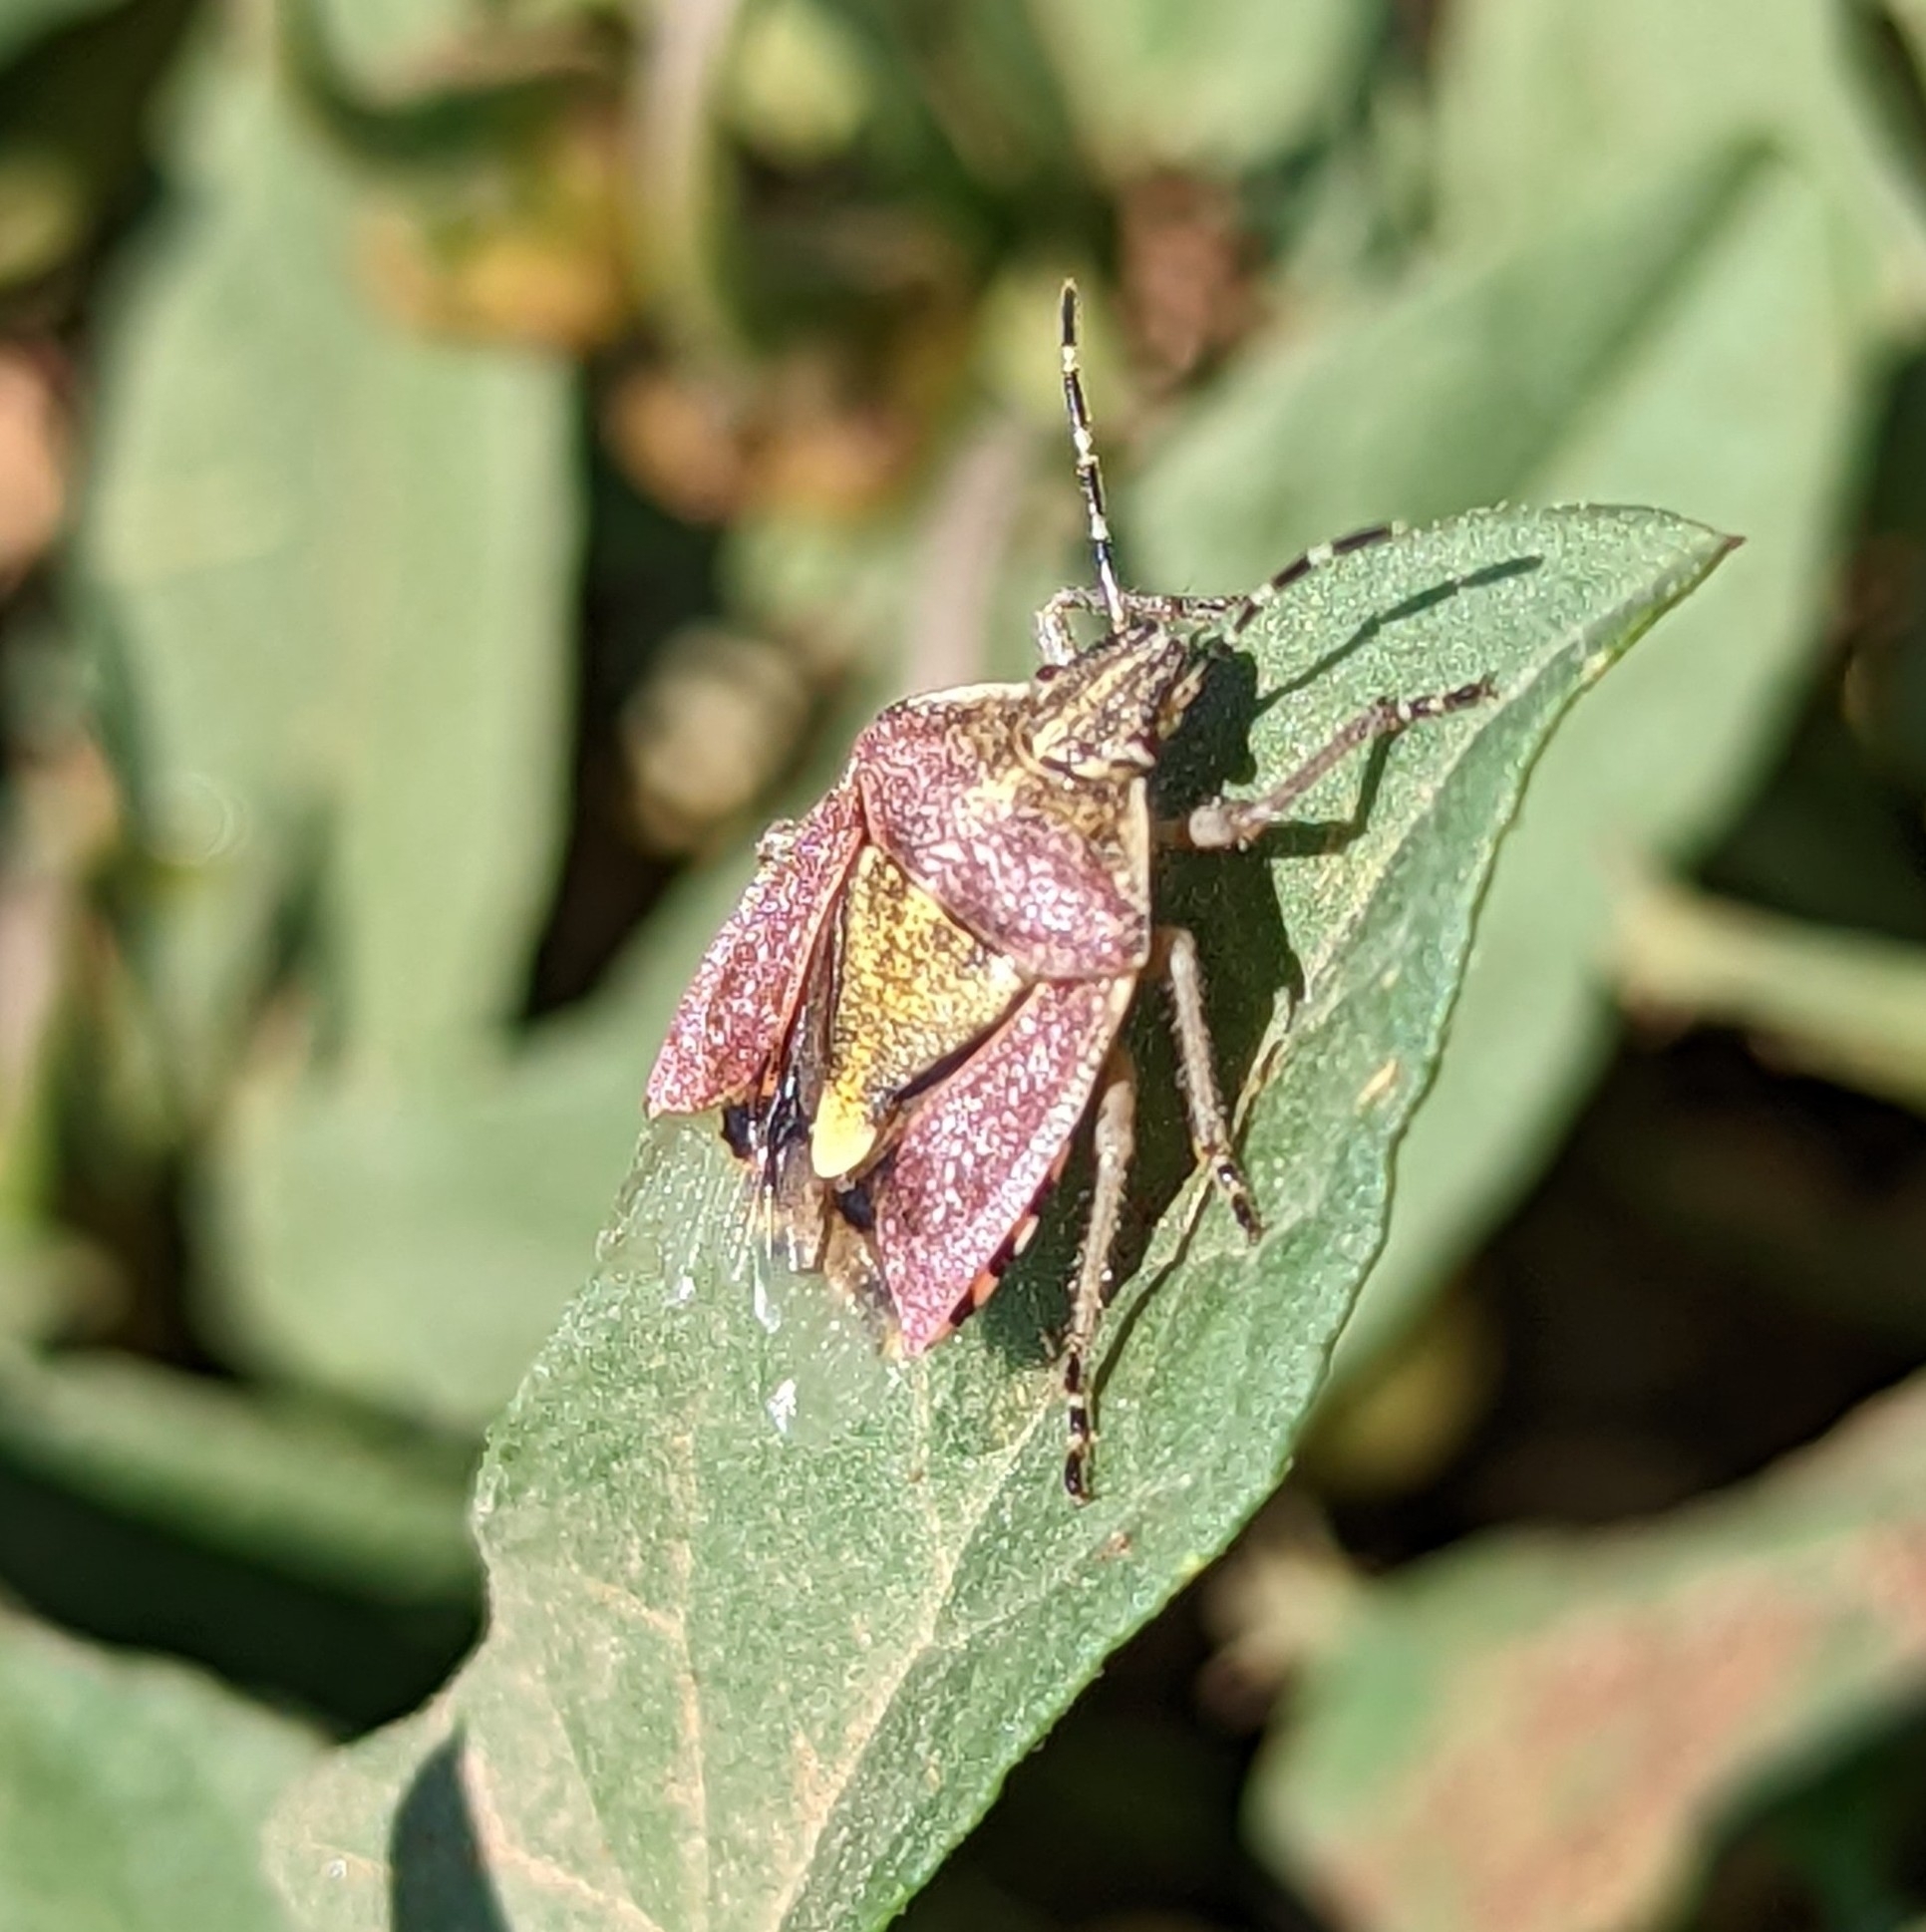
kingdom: Animalia
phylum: Arthropoda
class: Insecta
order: Hemiptera
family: Pentatomidae
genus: Dolycoris
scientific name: Dolycoris baccarum
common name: Sloe bug
